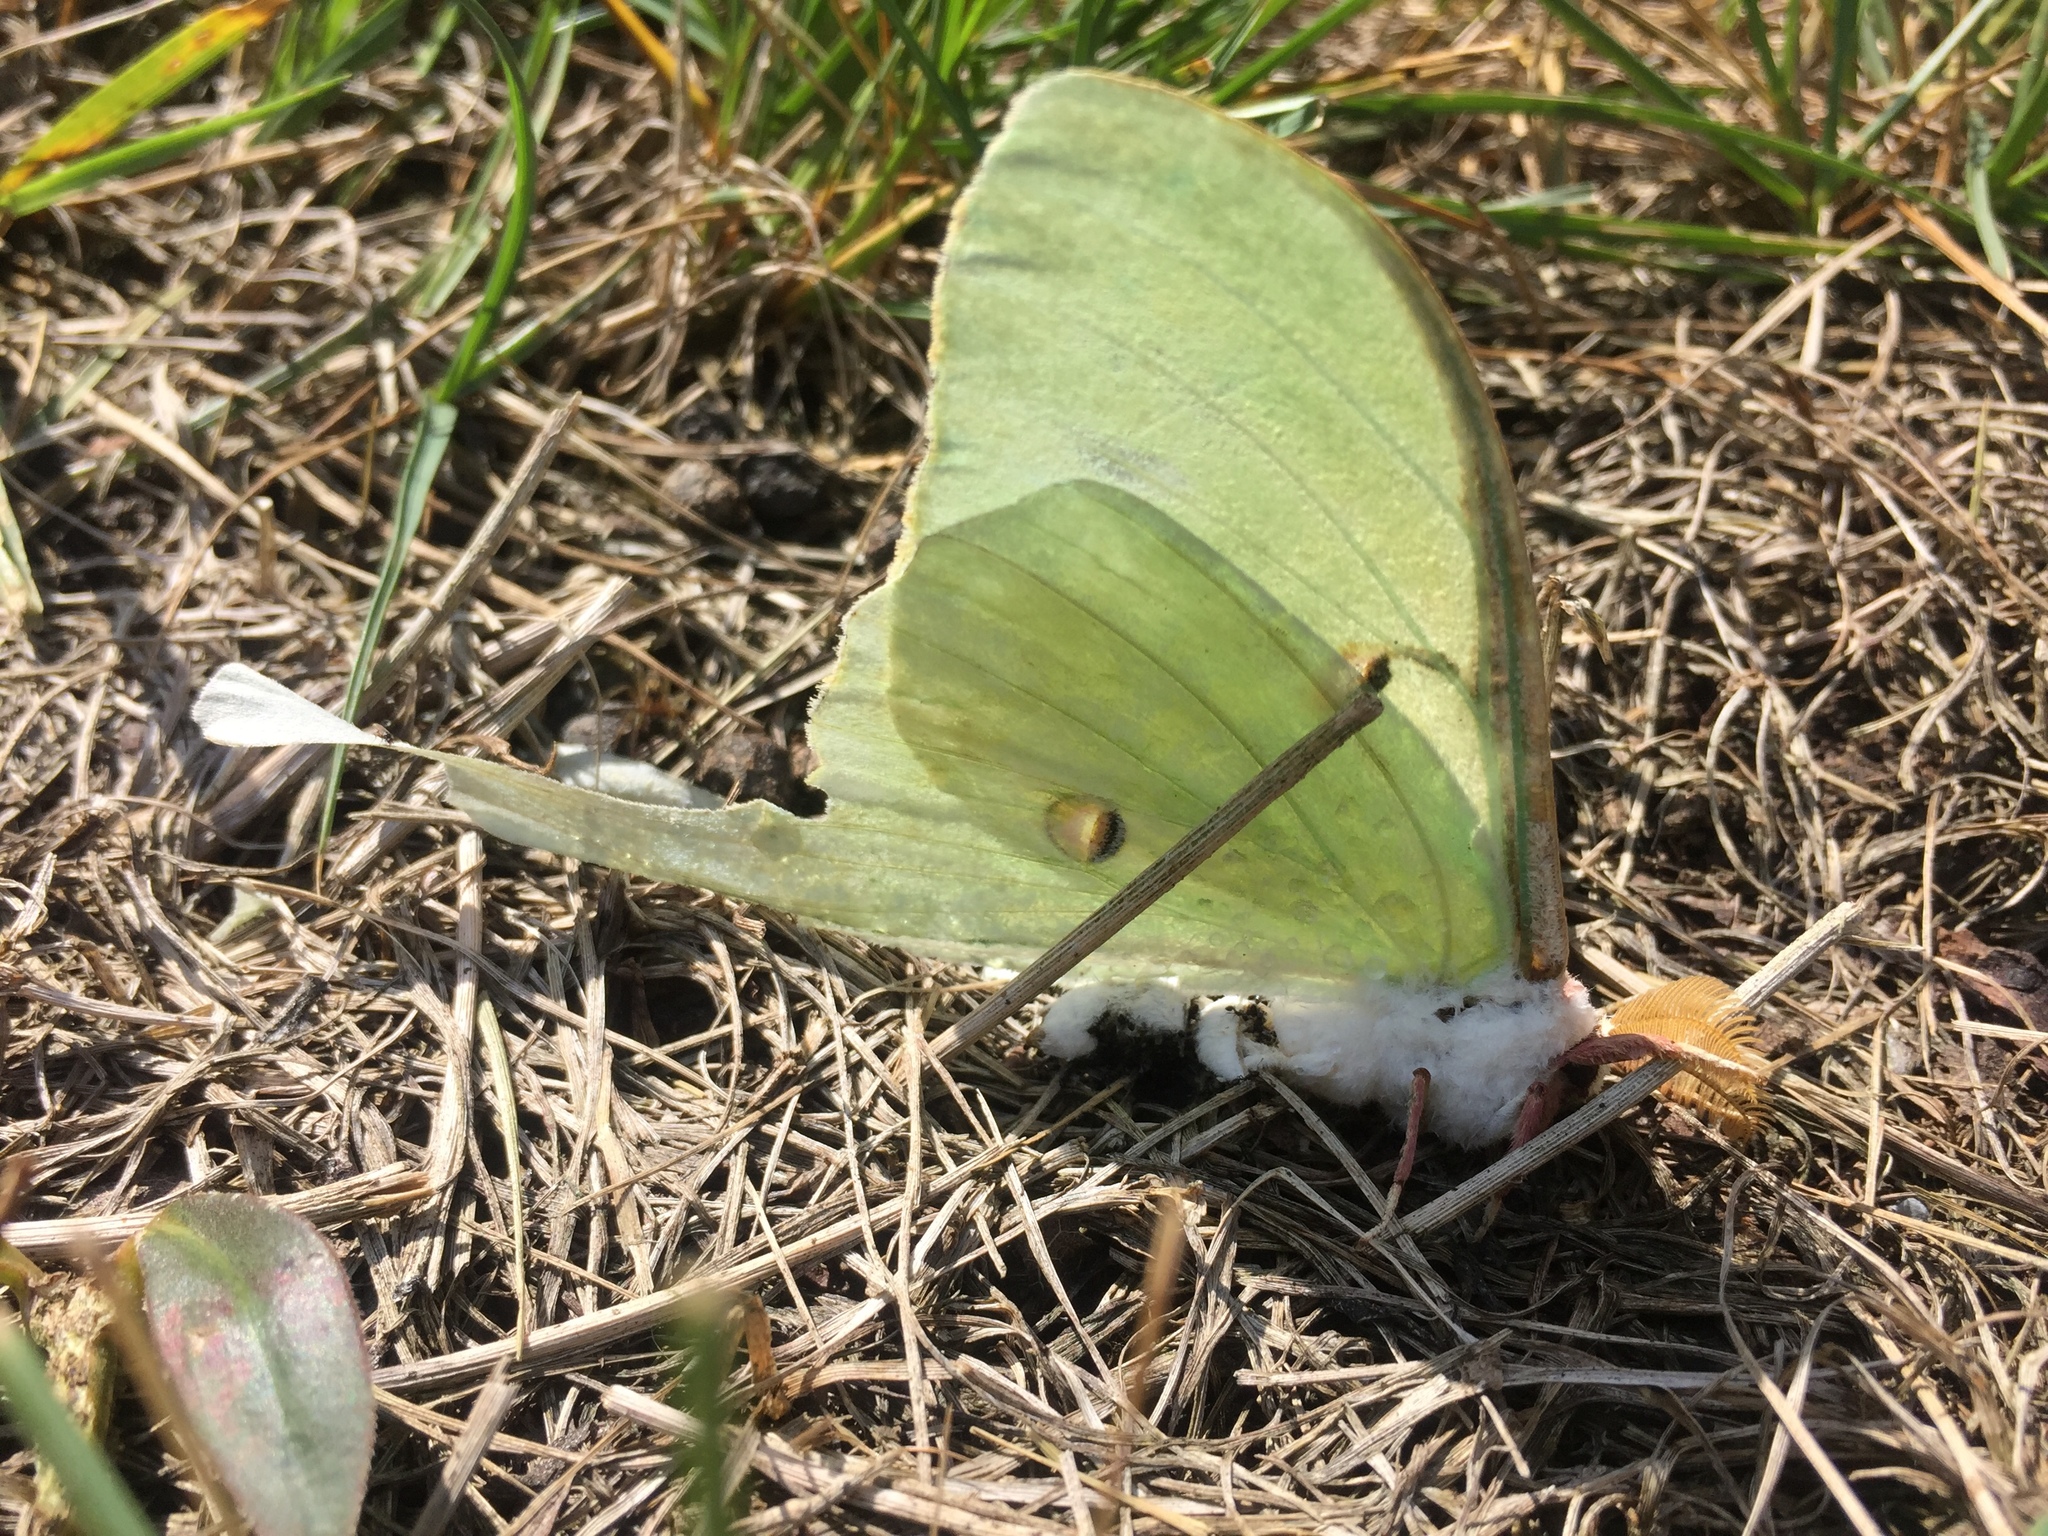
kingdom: Animalia
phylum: Arthropoda
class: Insecta
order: Lepidoptera
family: Saturniidae
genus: Actias
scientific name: Actias luna
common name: Luna moth
